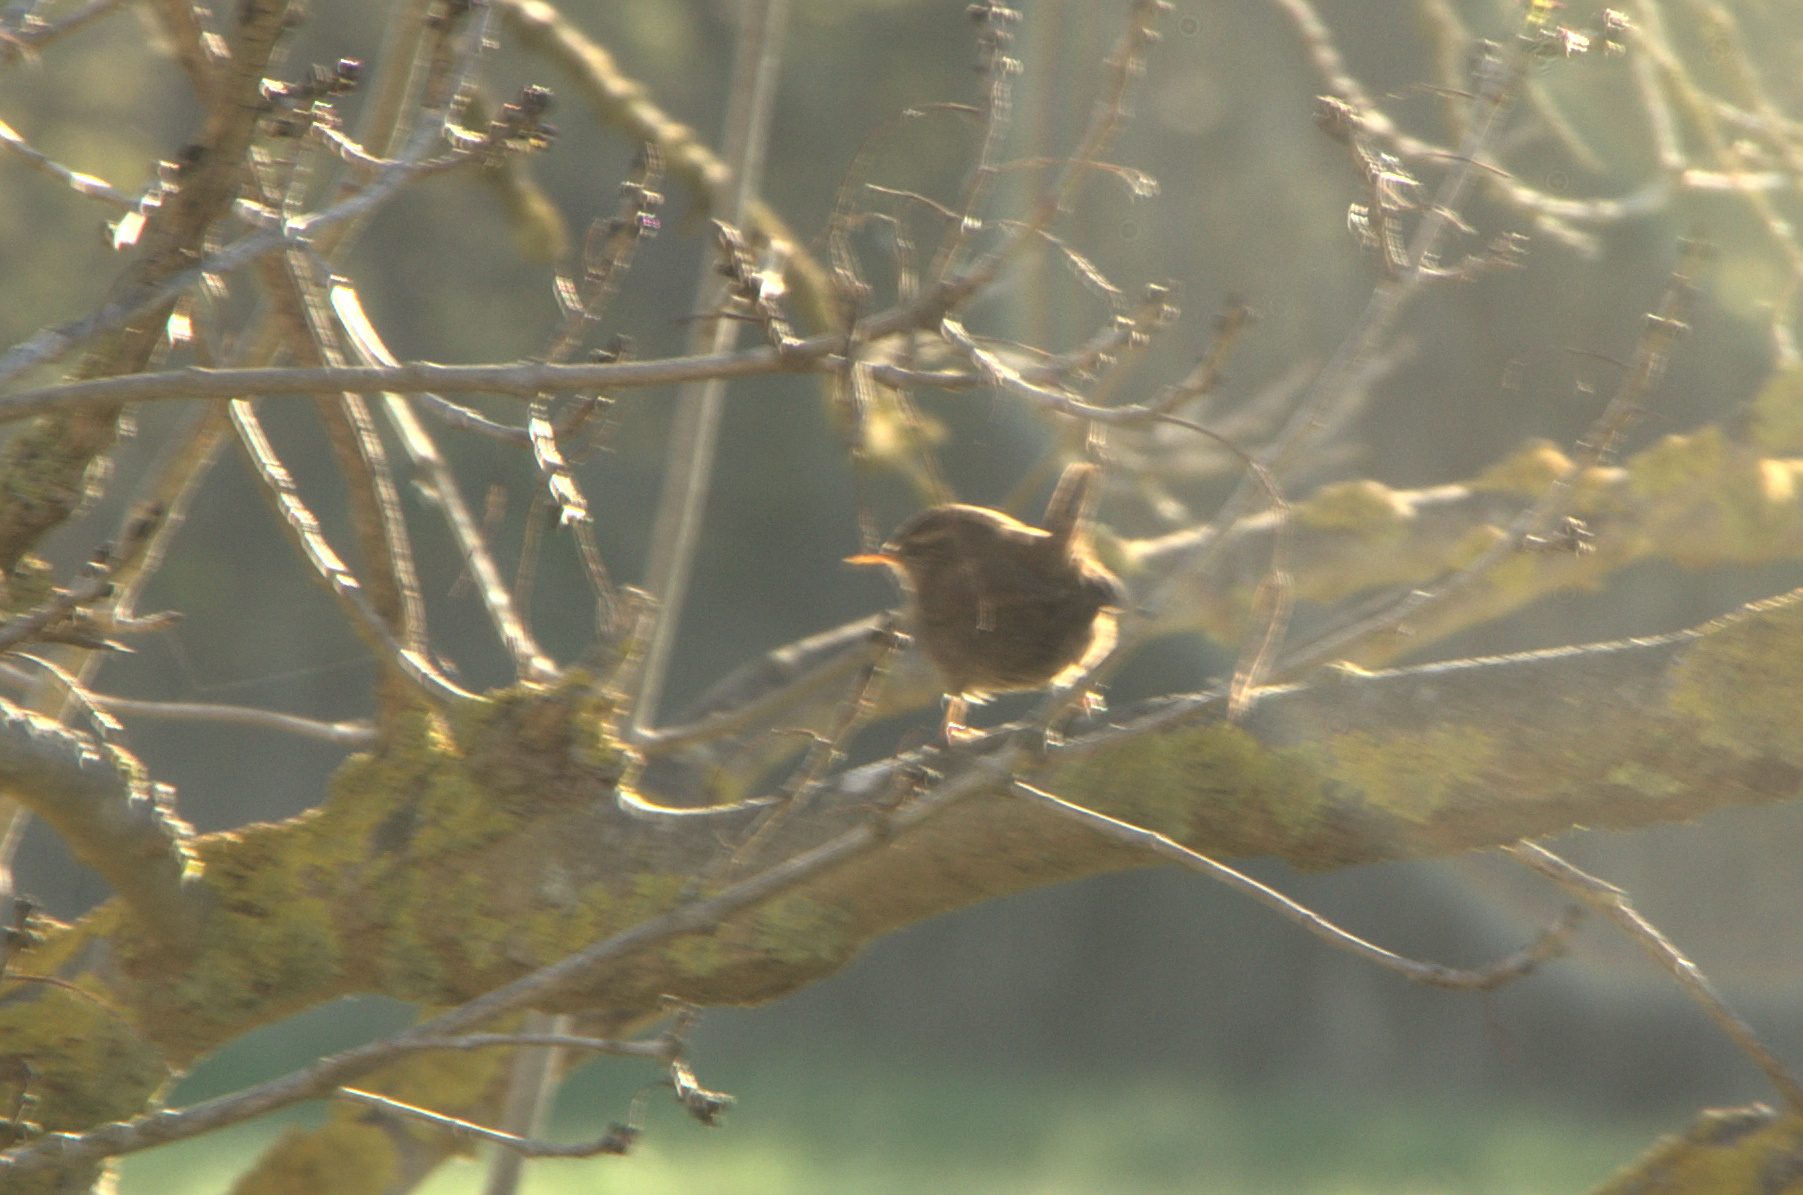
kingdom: Animalia
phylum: Chordata
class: Aves
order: Passeriformes
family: Troglodytidae
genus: Troglodytes
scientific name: Troglodytes troglodytes
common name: Eurasian wren
